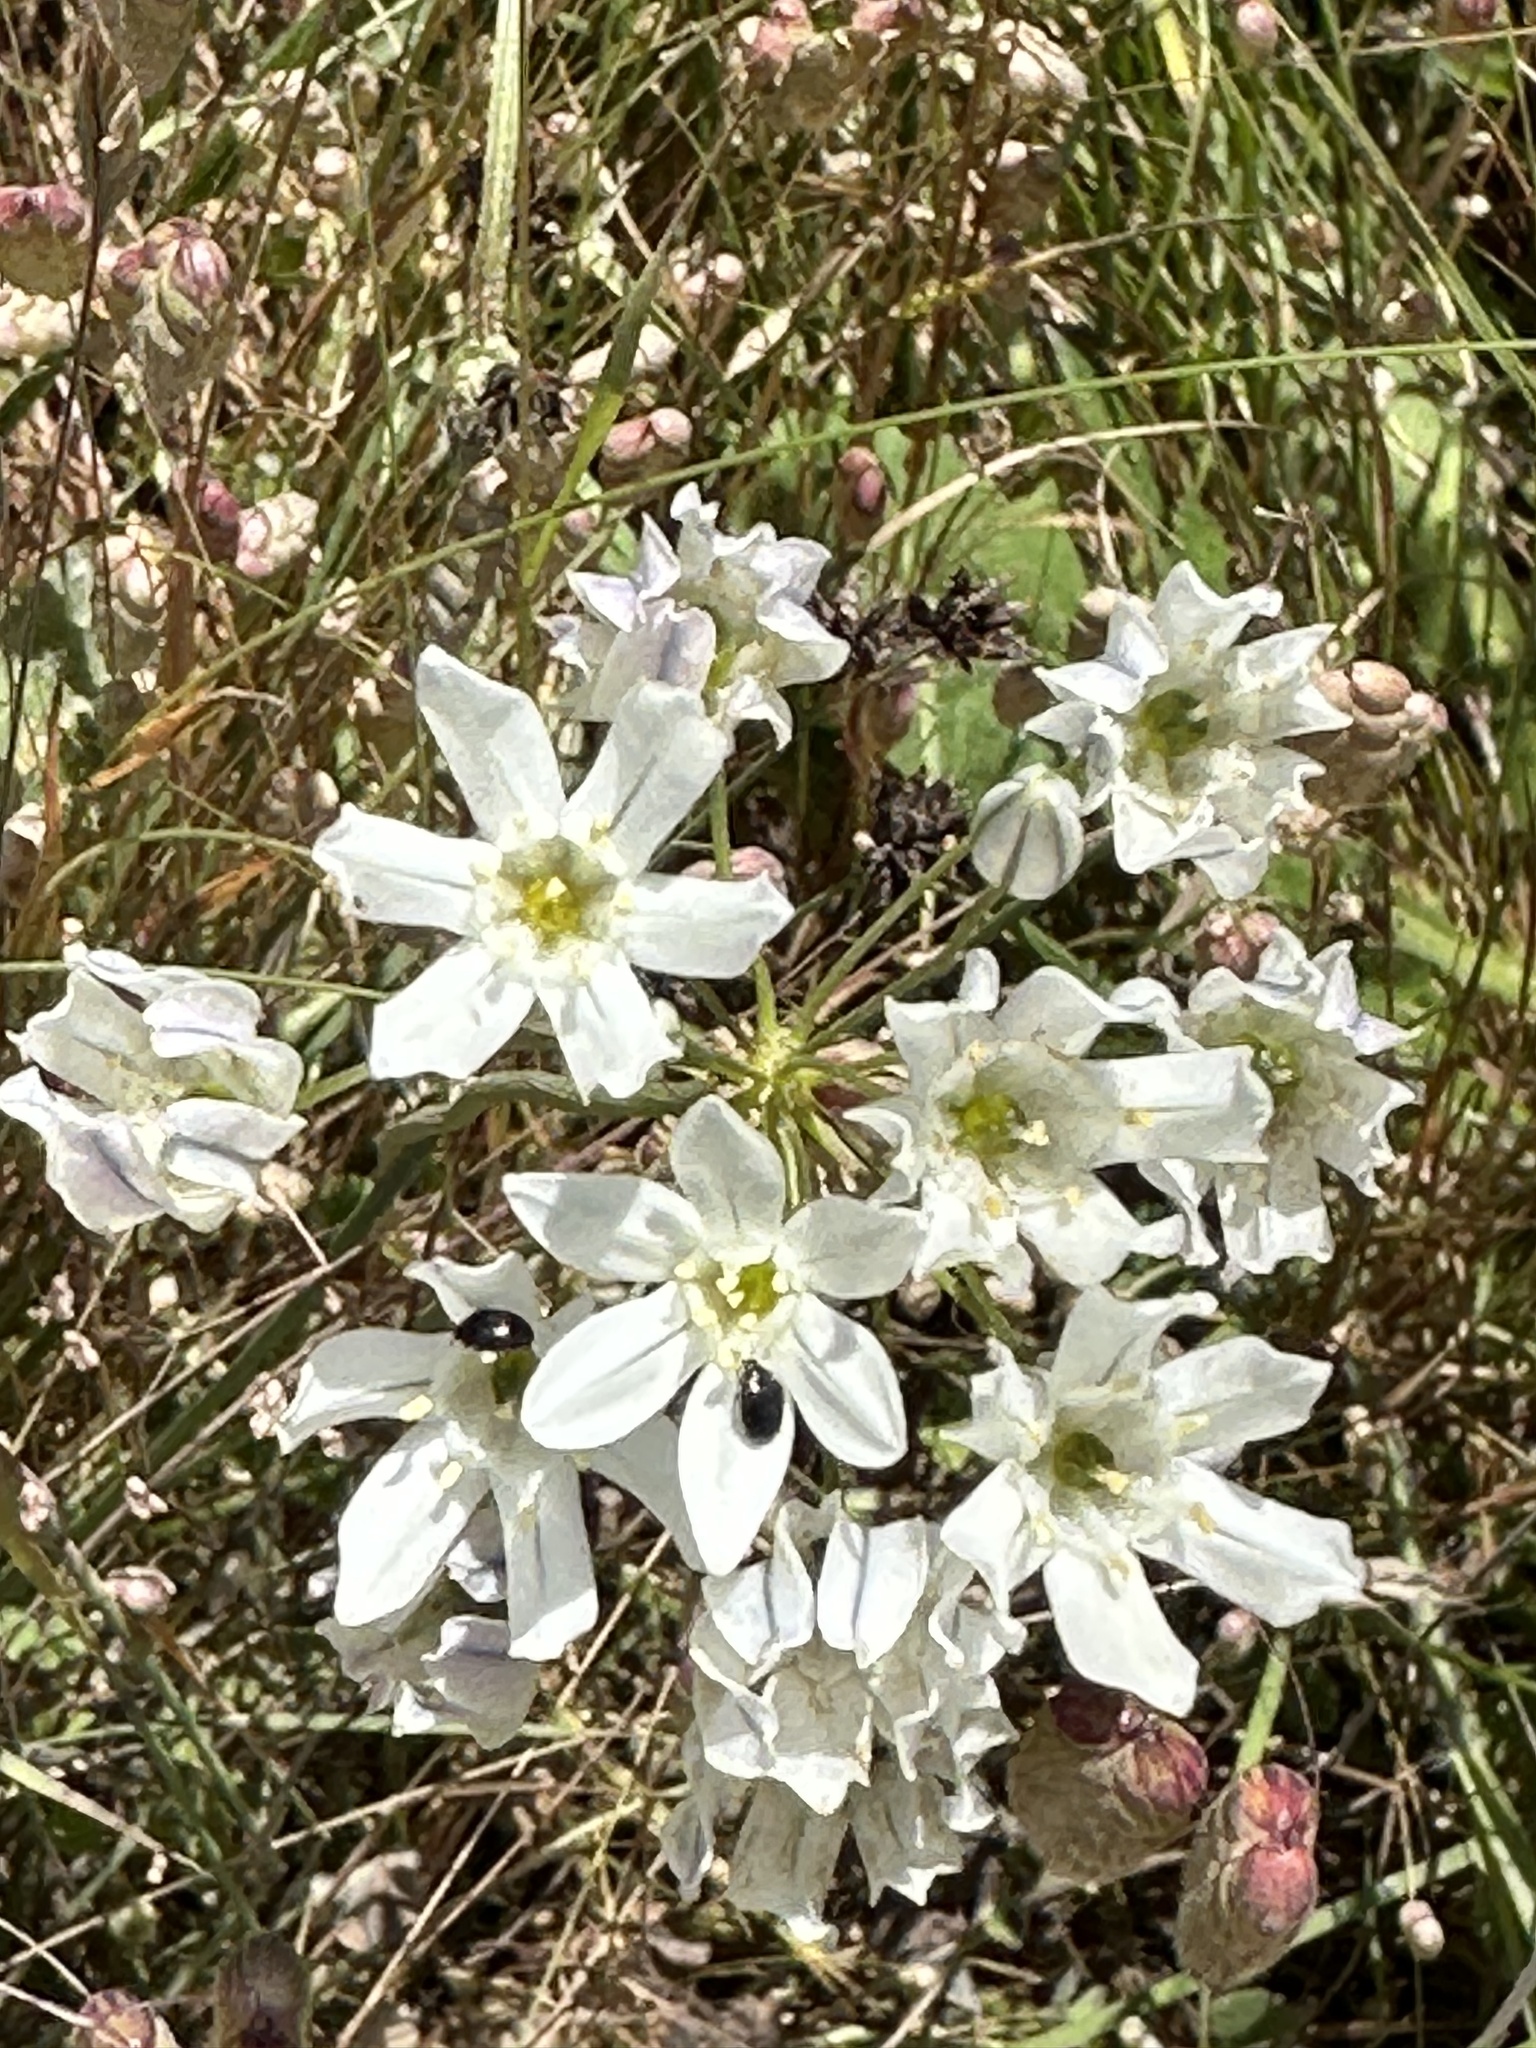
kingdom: Plantae
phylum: Tracheophyta
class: Liliopsida
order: Asparagales
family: Asparagaceae
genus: Triteleia
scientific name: Triteleia hyacinthina
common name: White brodiaea
